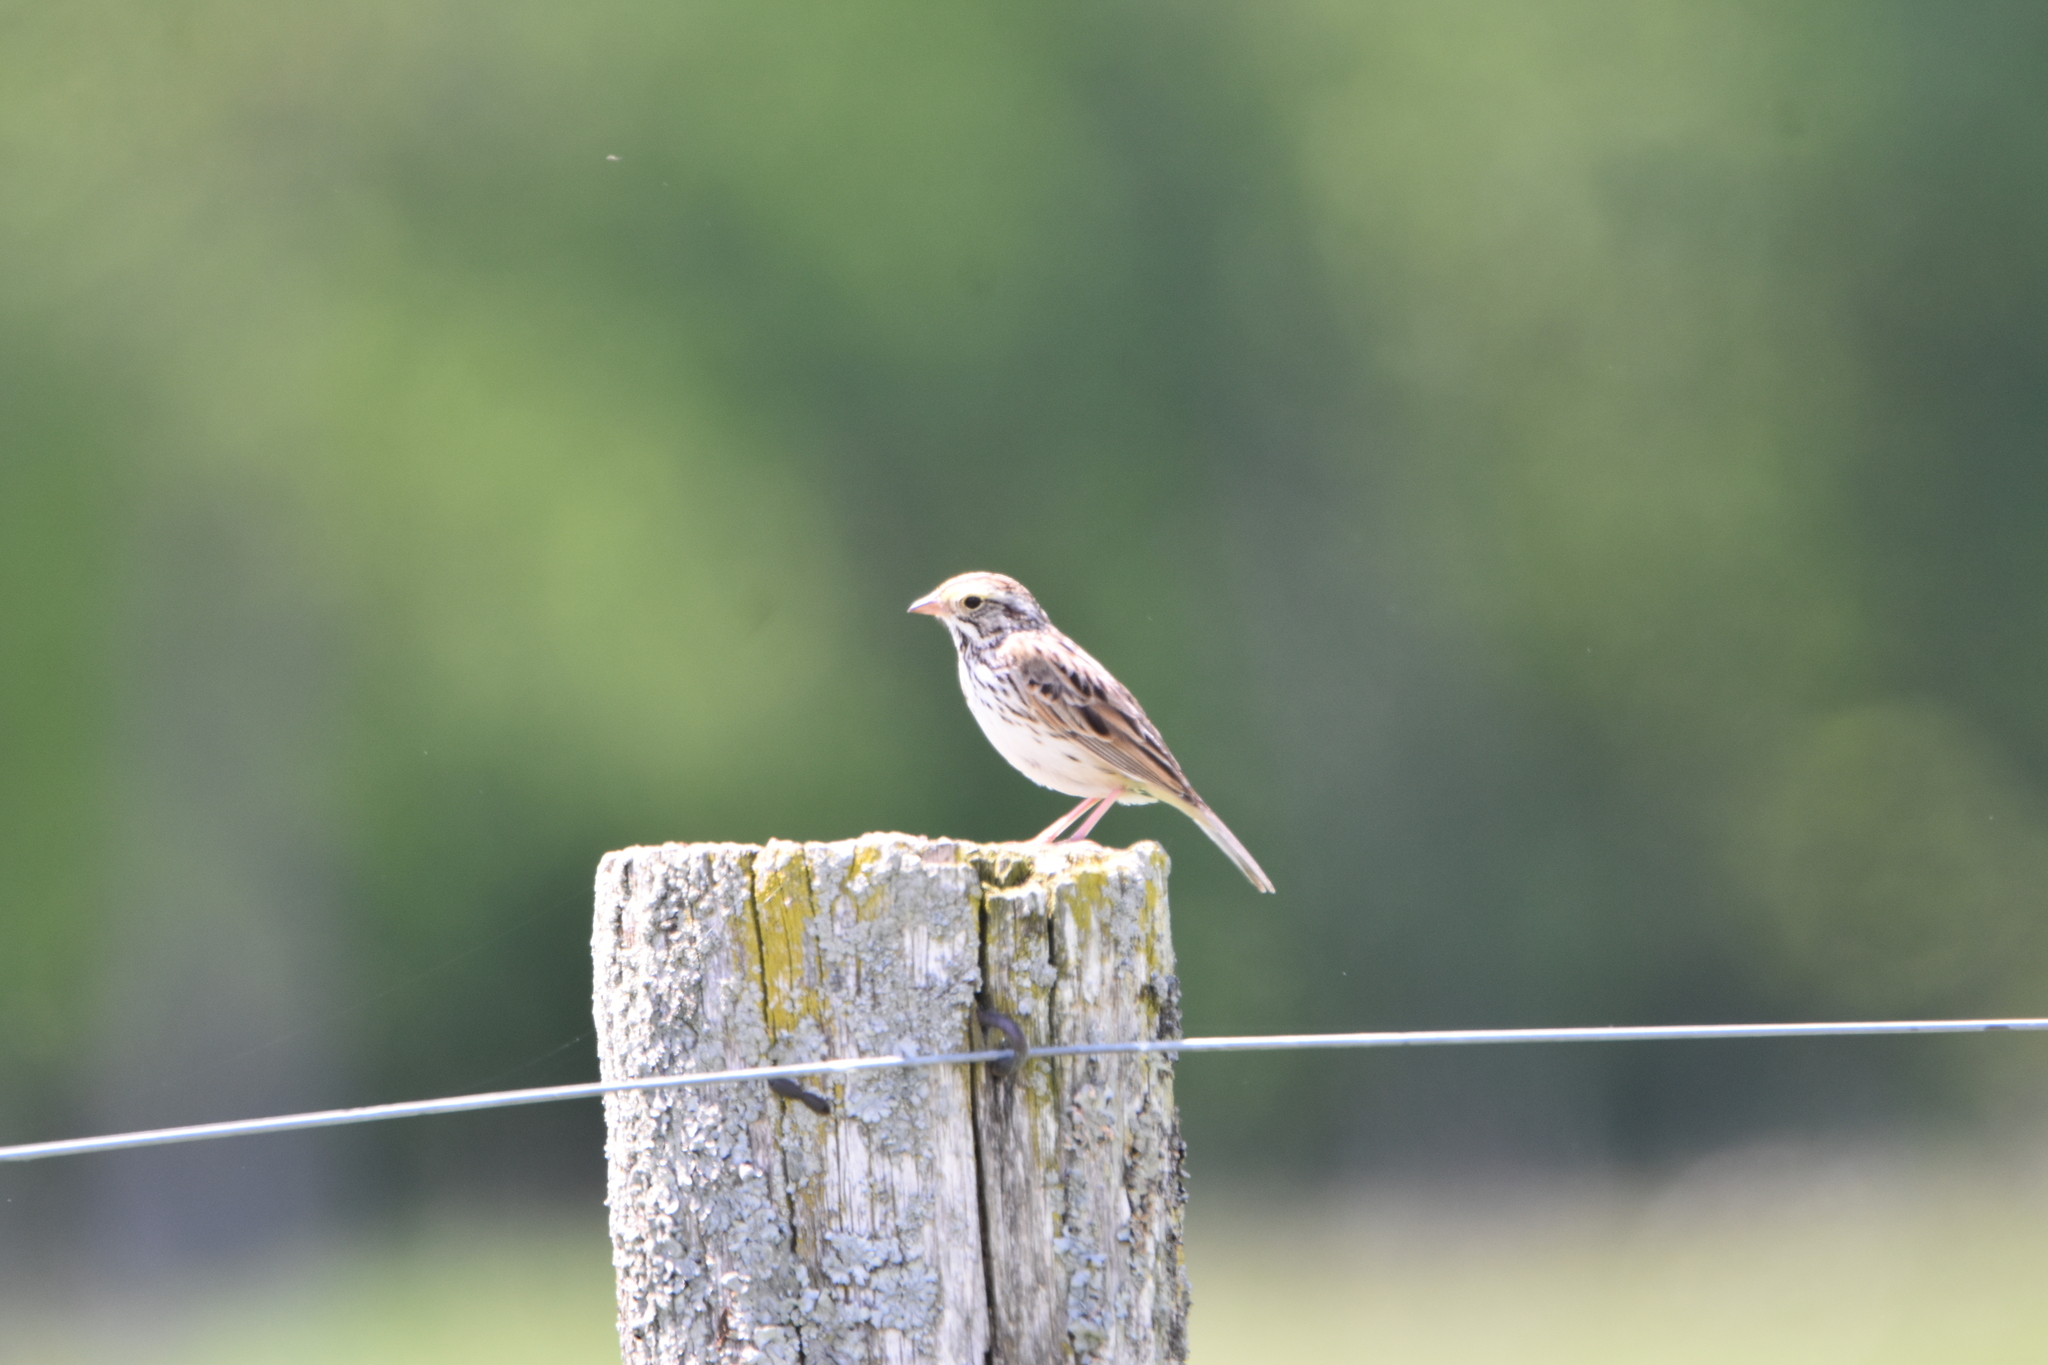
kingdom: Animalia
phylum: Chordata
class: Aves
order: Passeriformes
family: Passerellidae
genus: Passerculus
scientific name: Passerculus sandwichensis
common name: Savannah sparrow
